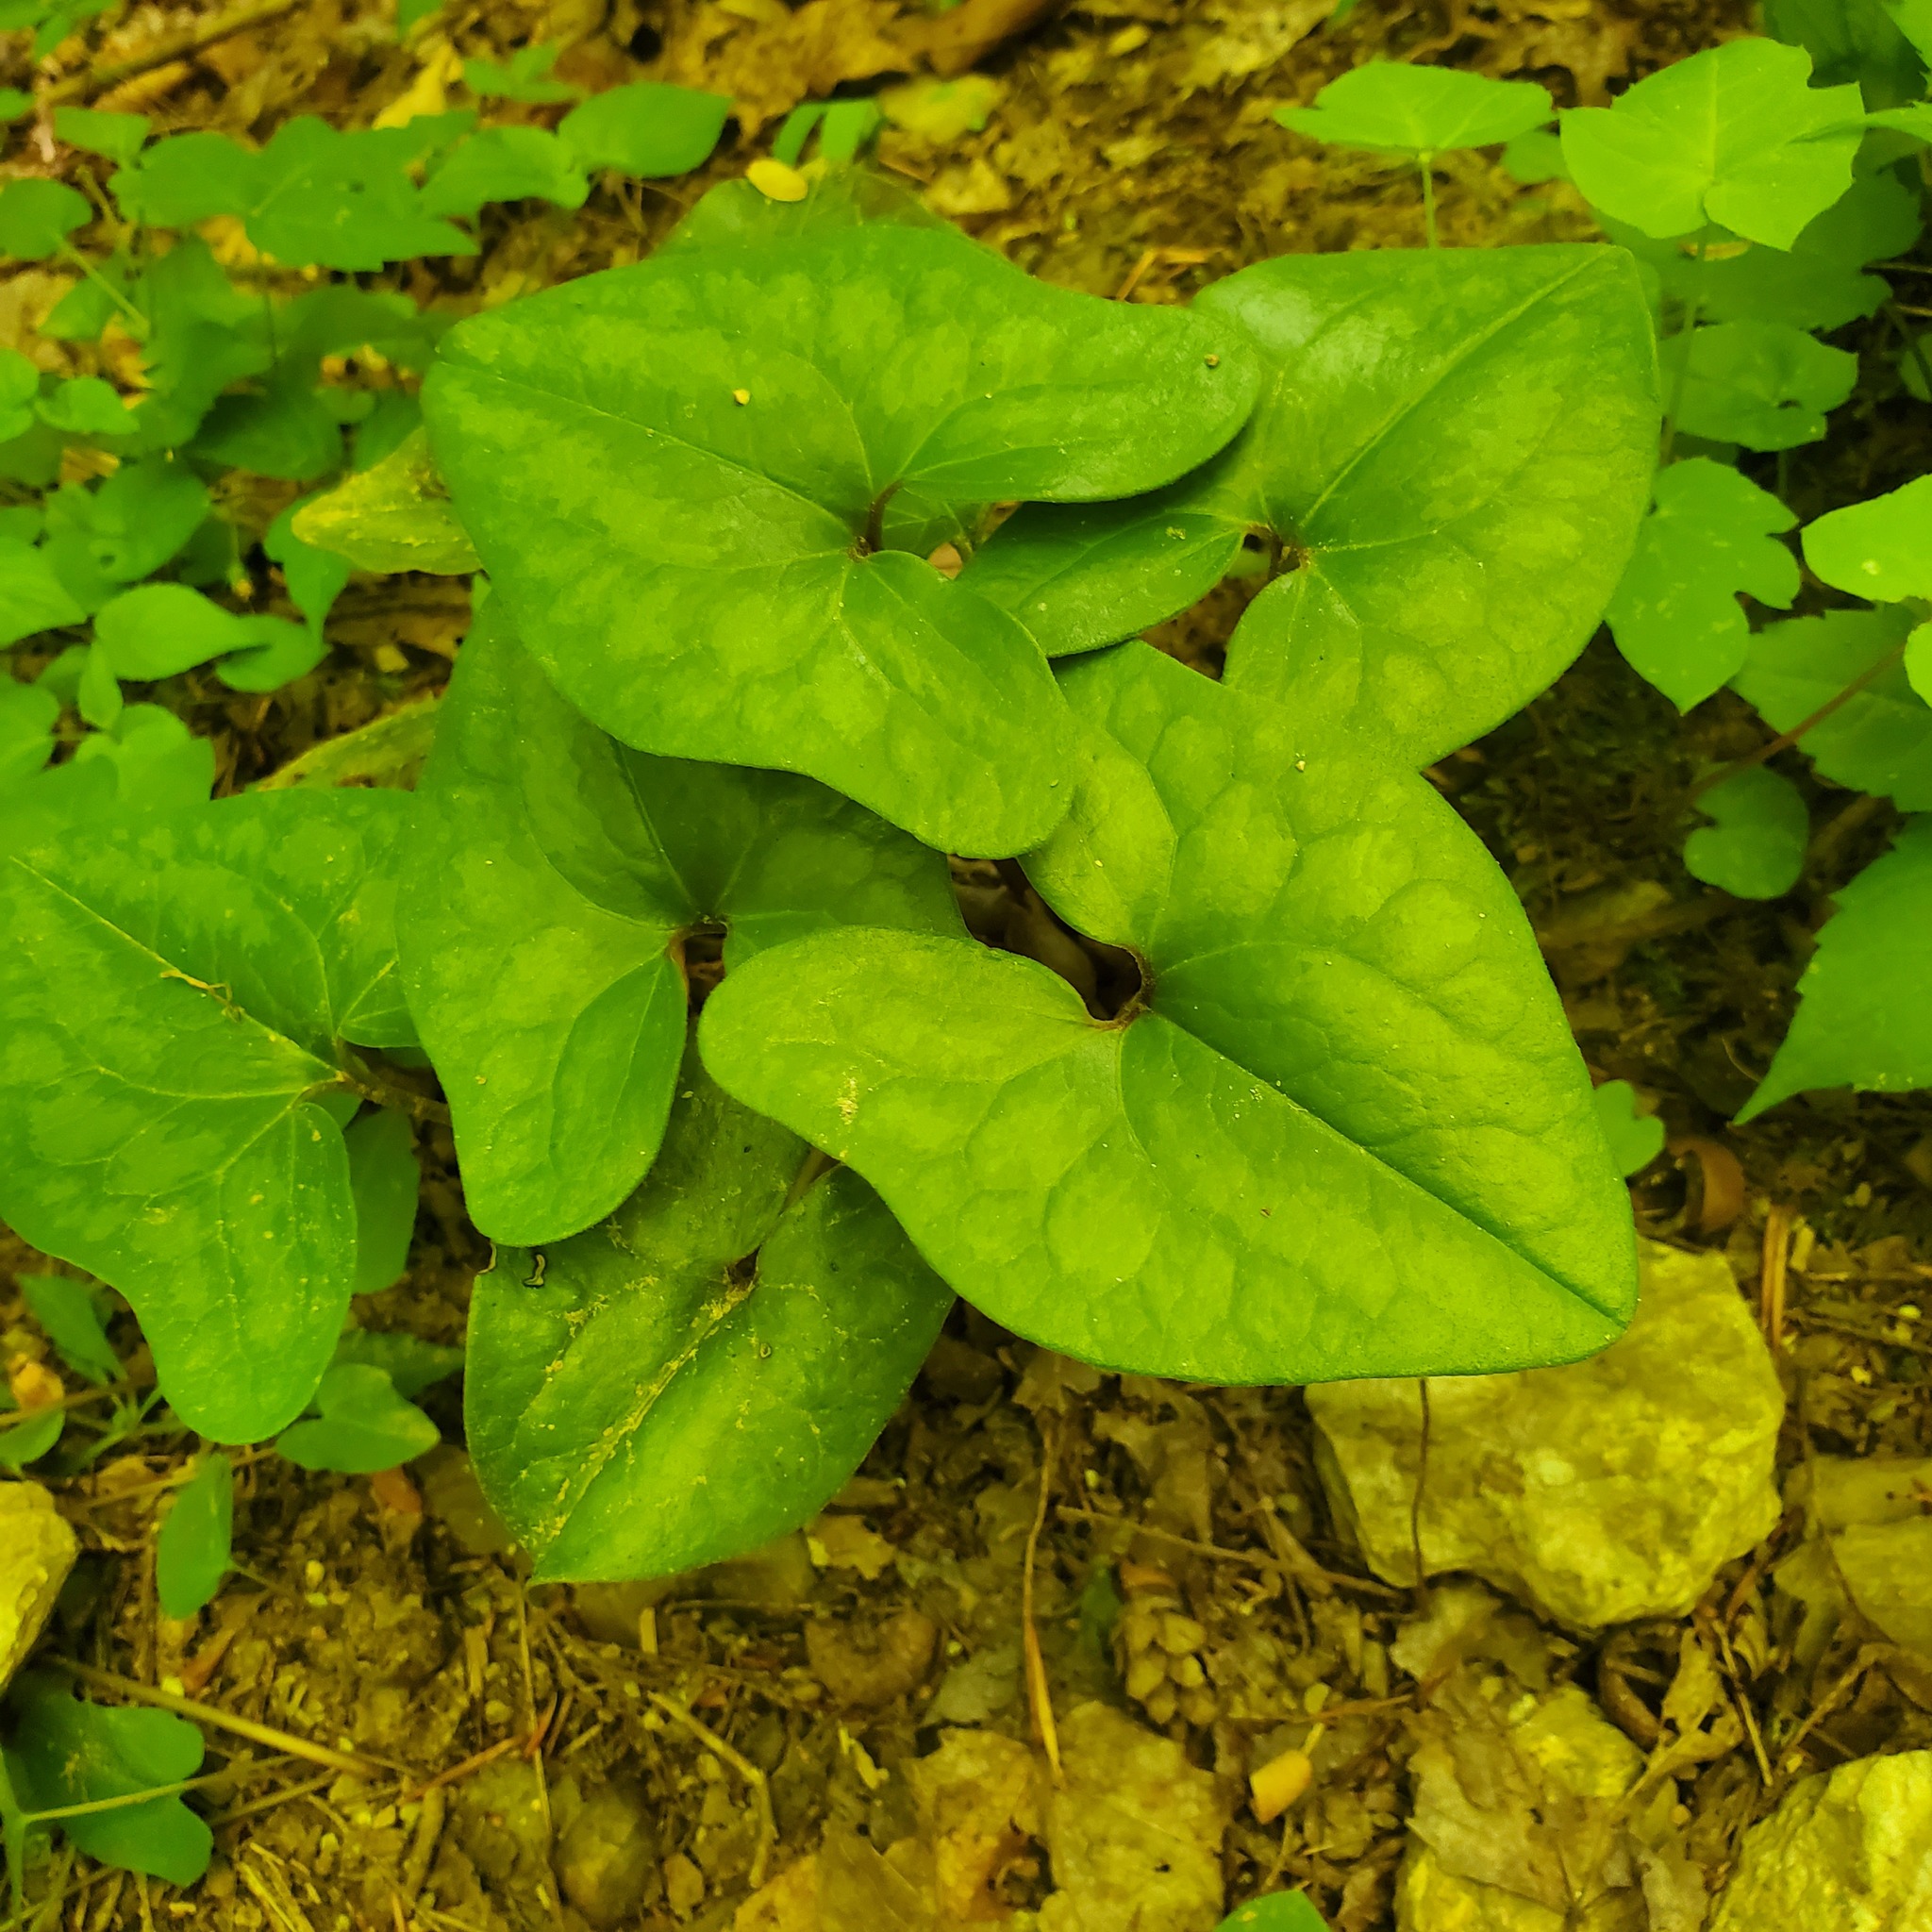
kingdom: Plantae
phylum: Tracheophyta
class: Magnoliopsida
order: Piperales
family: Aristolochiaceae
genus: Hexastylis
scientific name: Hexastylis arifolia
